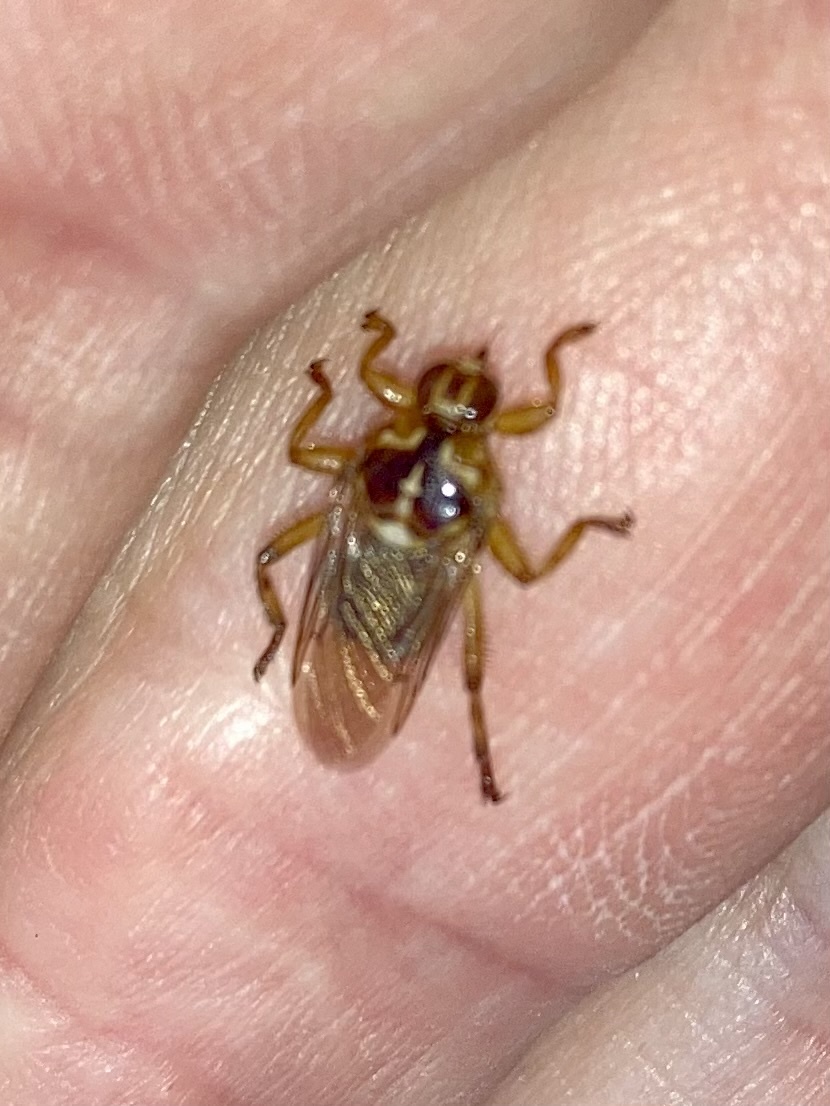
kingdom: Animalia
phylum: Arthropoda
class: Insecta
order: Diptera
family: Hippoboscidae
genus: Hippobosca
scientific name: Hippobosca equina
